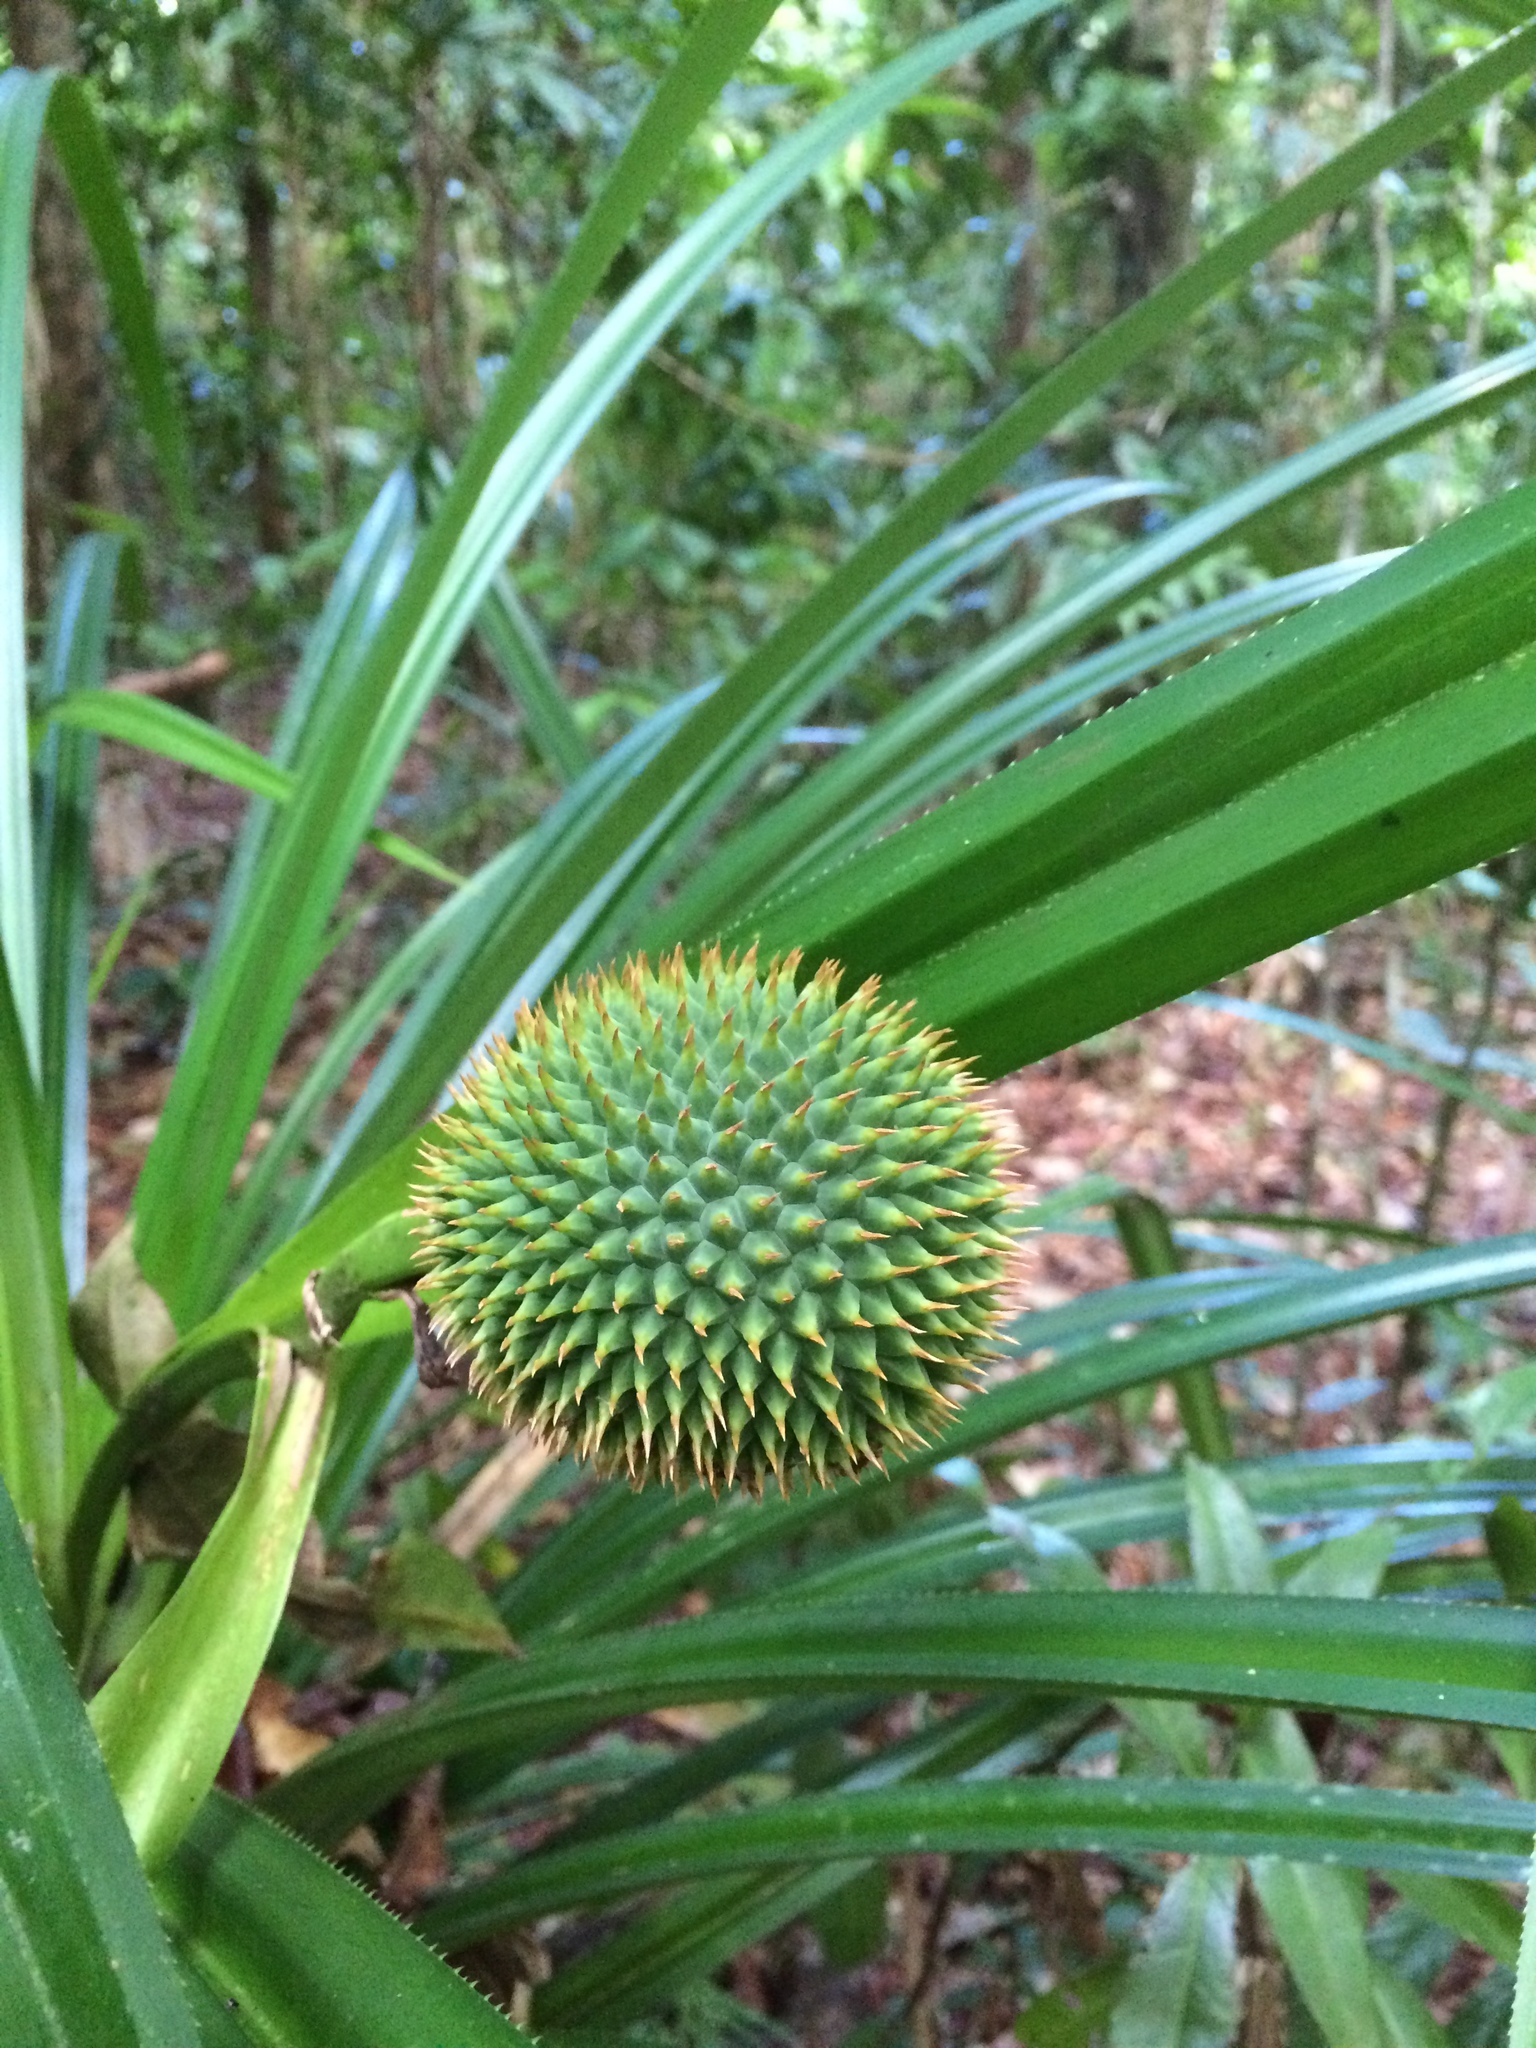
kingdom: Plantae
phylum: Tracheophyta
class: Liliopsida
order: Pandanales
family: Pandanaceae
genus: Benstonea
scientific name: Benstonea monticola
